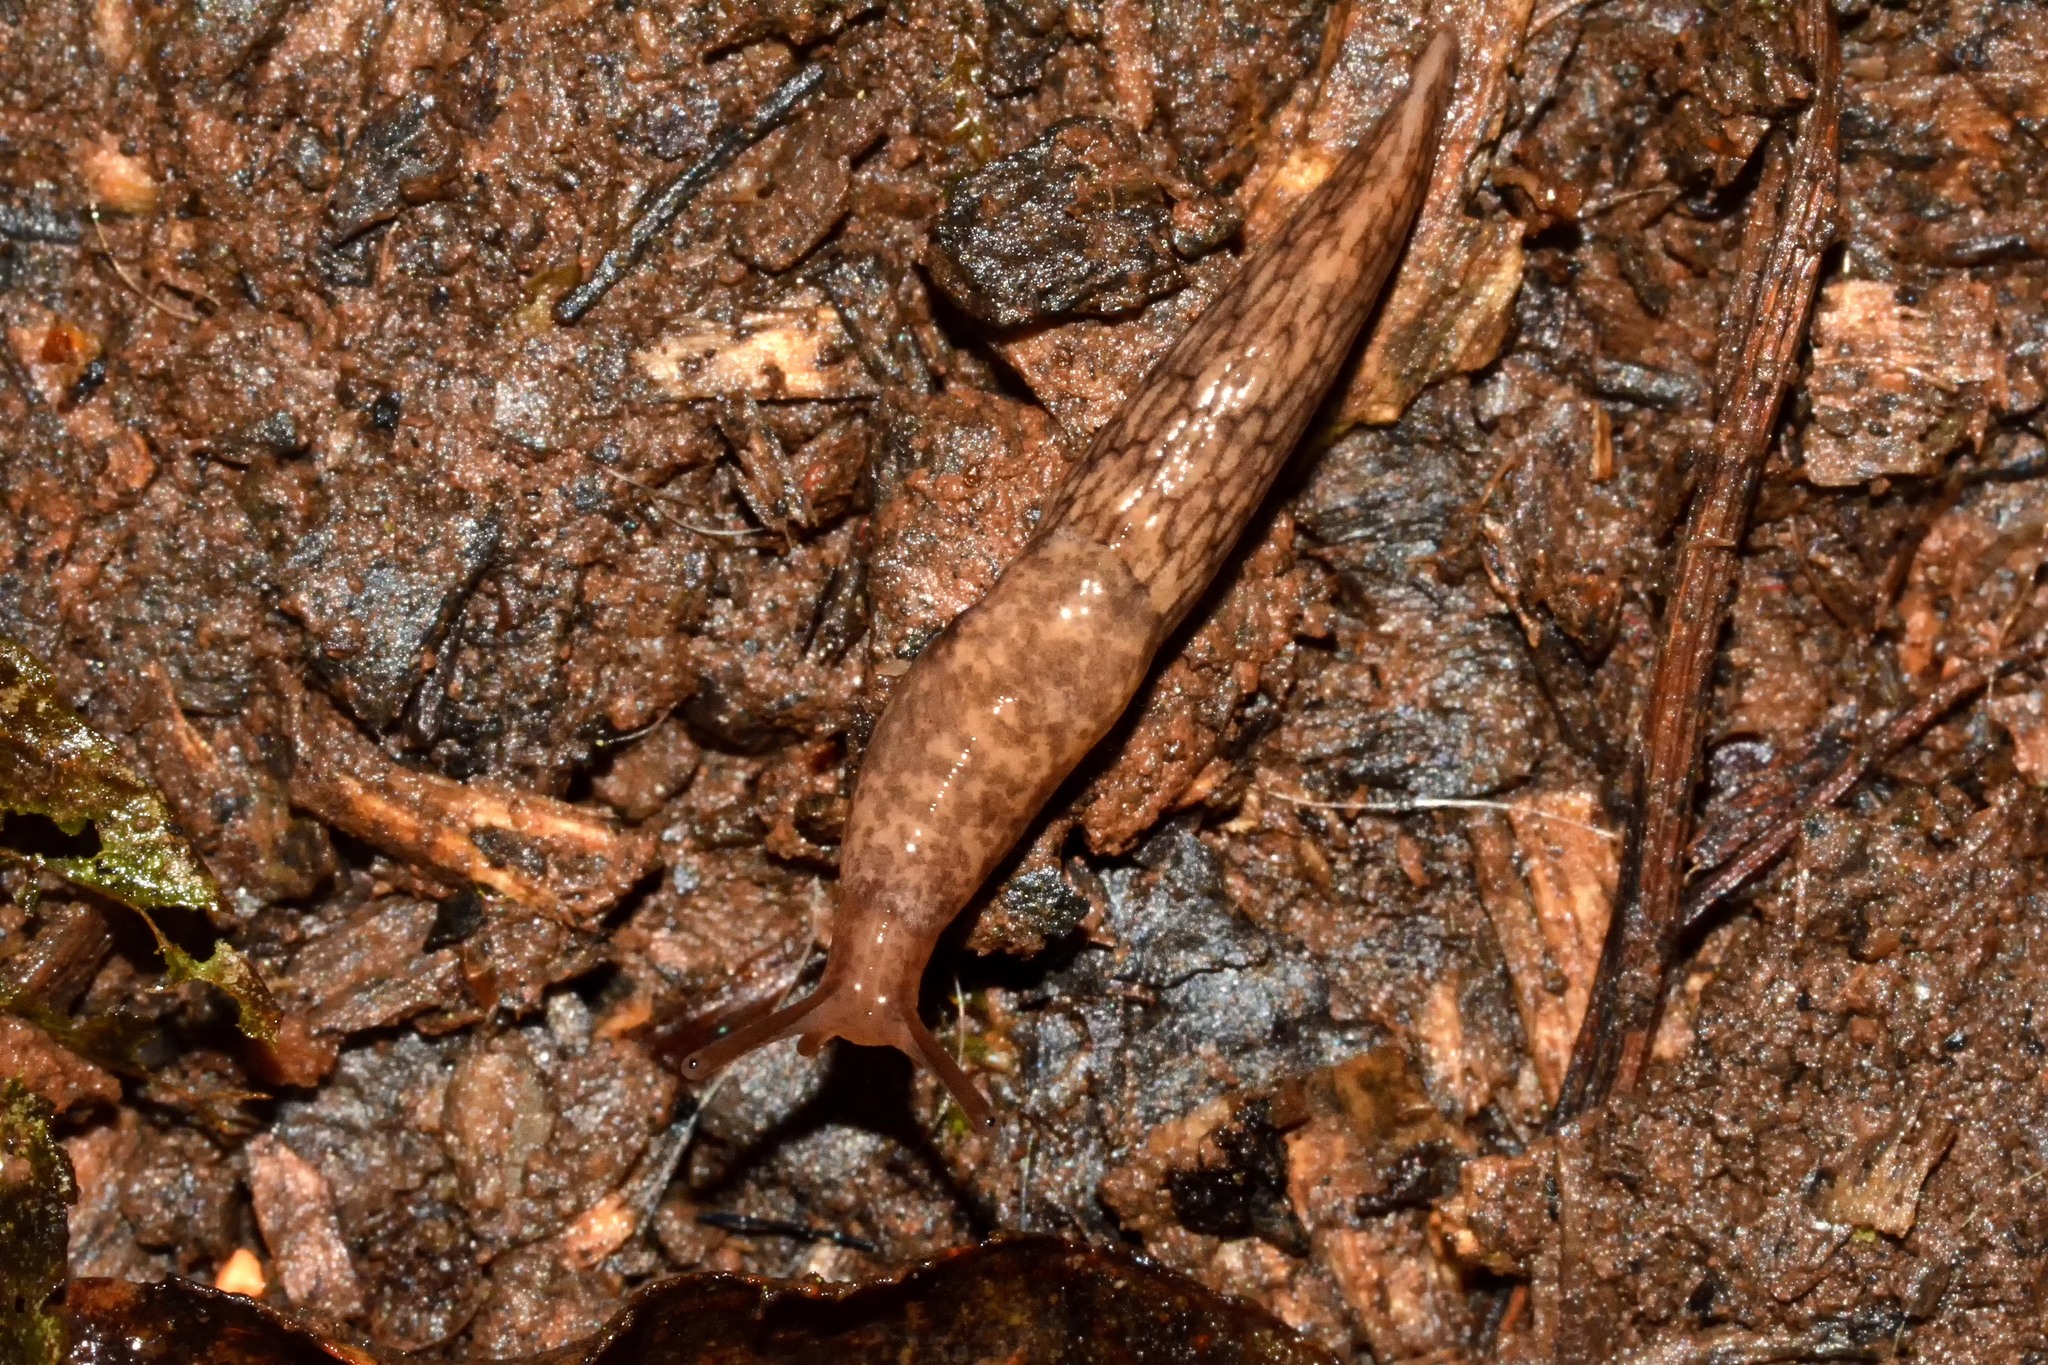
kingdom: Animalia
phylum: Mollusca
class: Gastropoda
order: Stylommatophora
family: Agriolimacidae
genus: Deroceras
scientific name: Deroceras reticulatum
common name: Gray field slug
